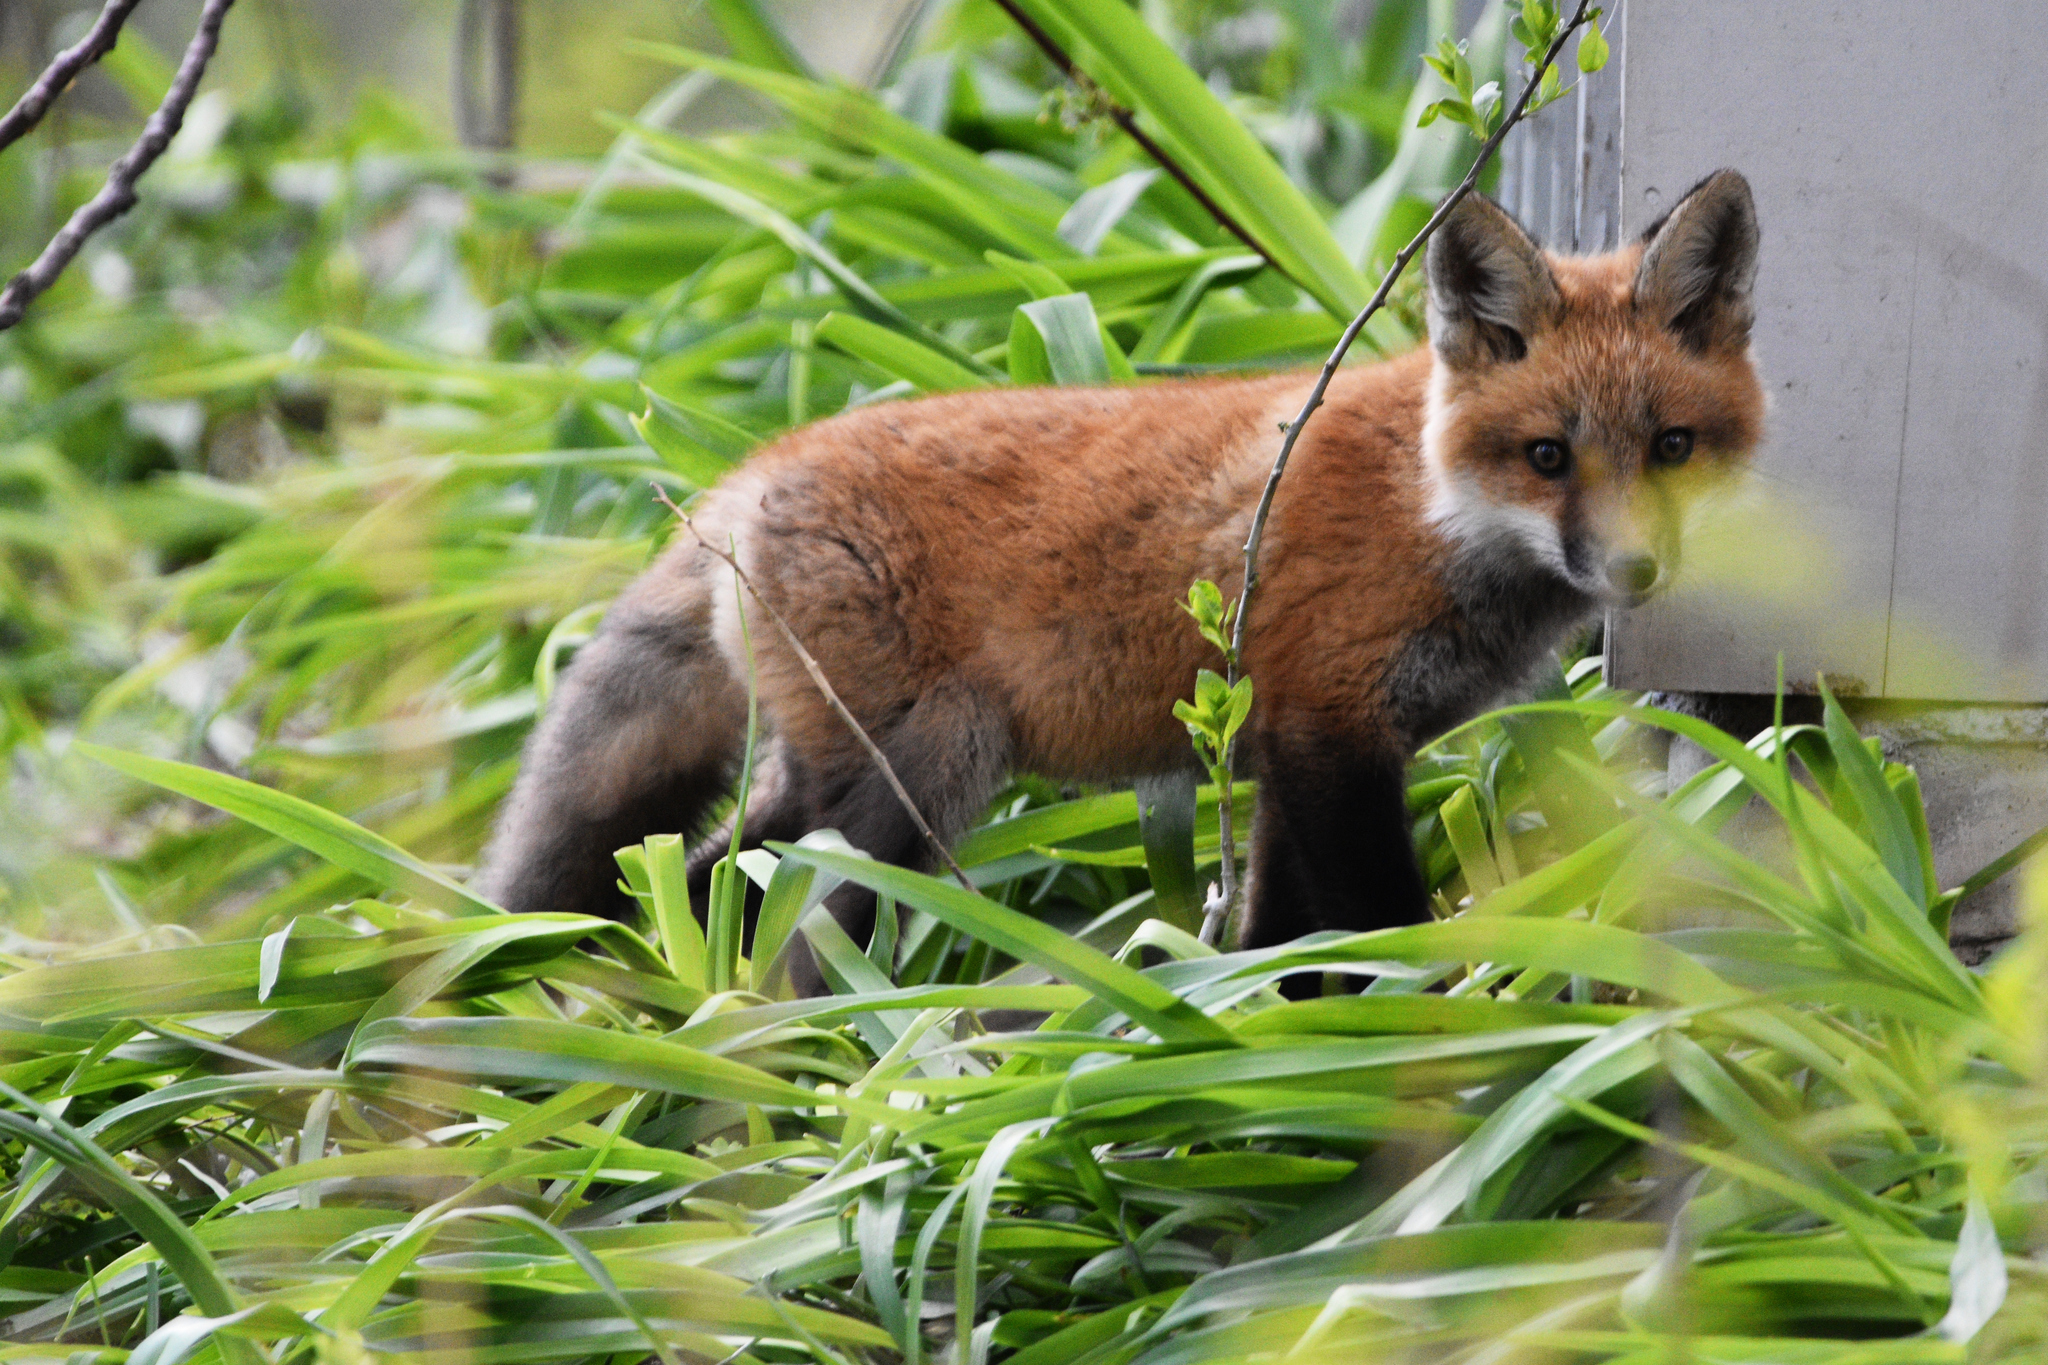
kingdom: Animalia
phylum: Chordata
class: Mammalia
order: Carnivora
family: Canidae
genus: Vulpes
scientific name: Vulpes vulpes
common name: Red fox
